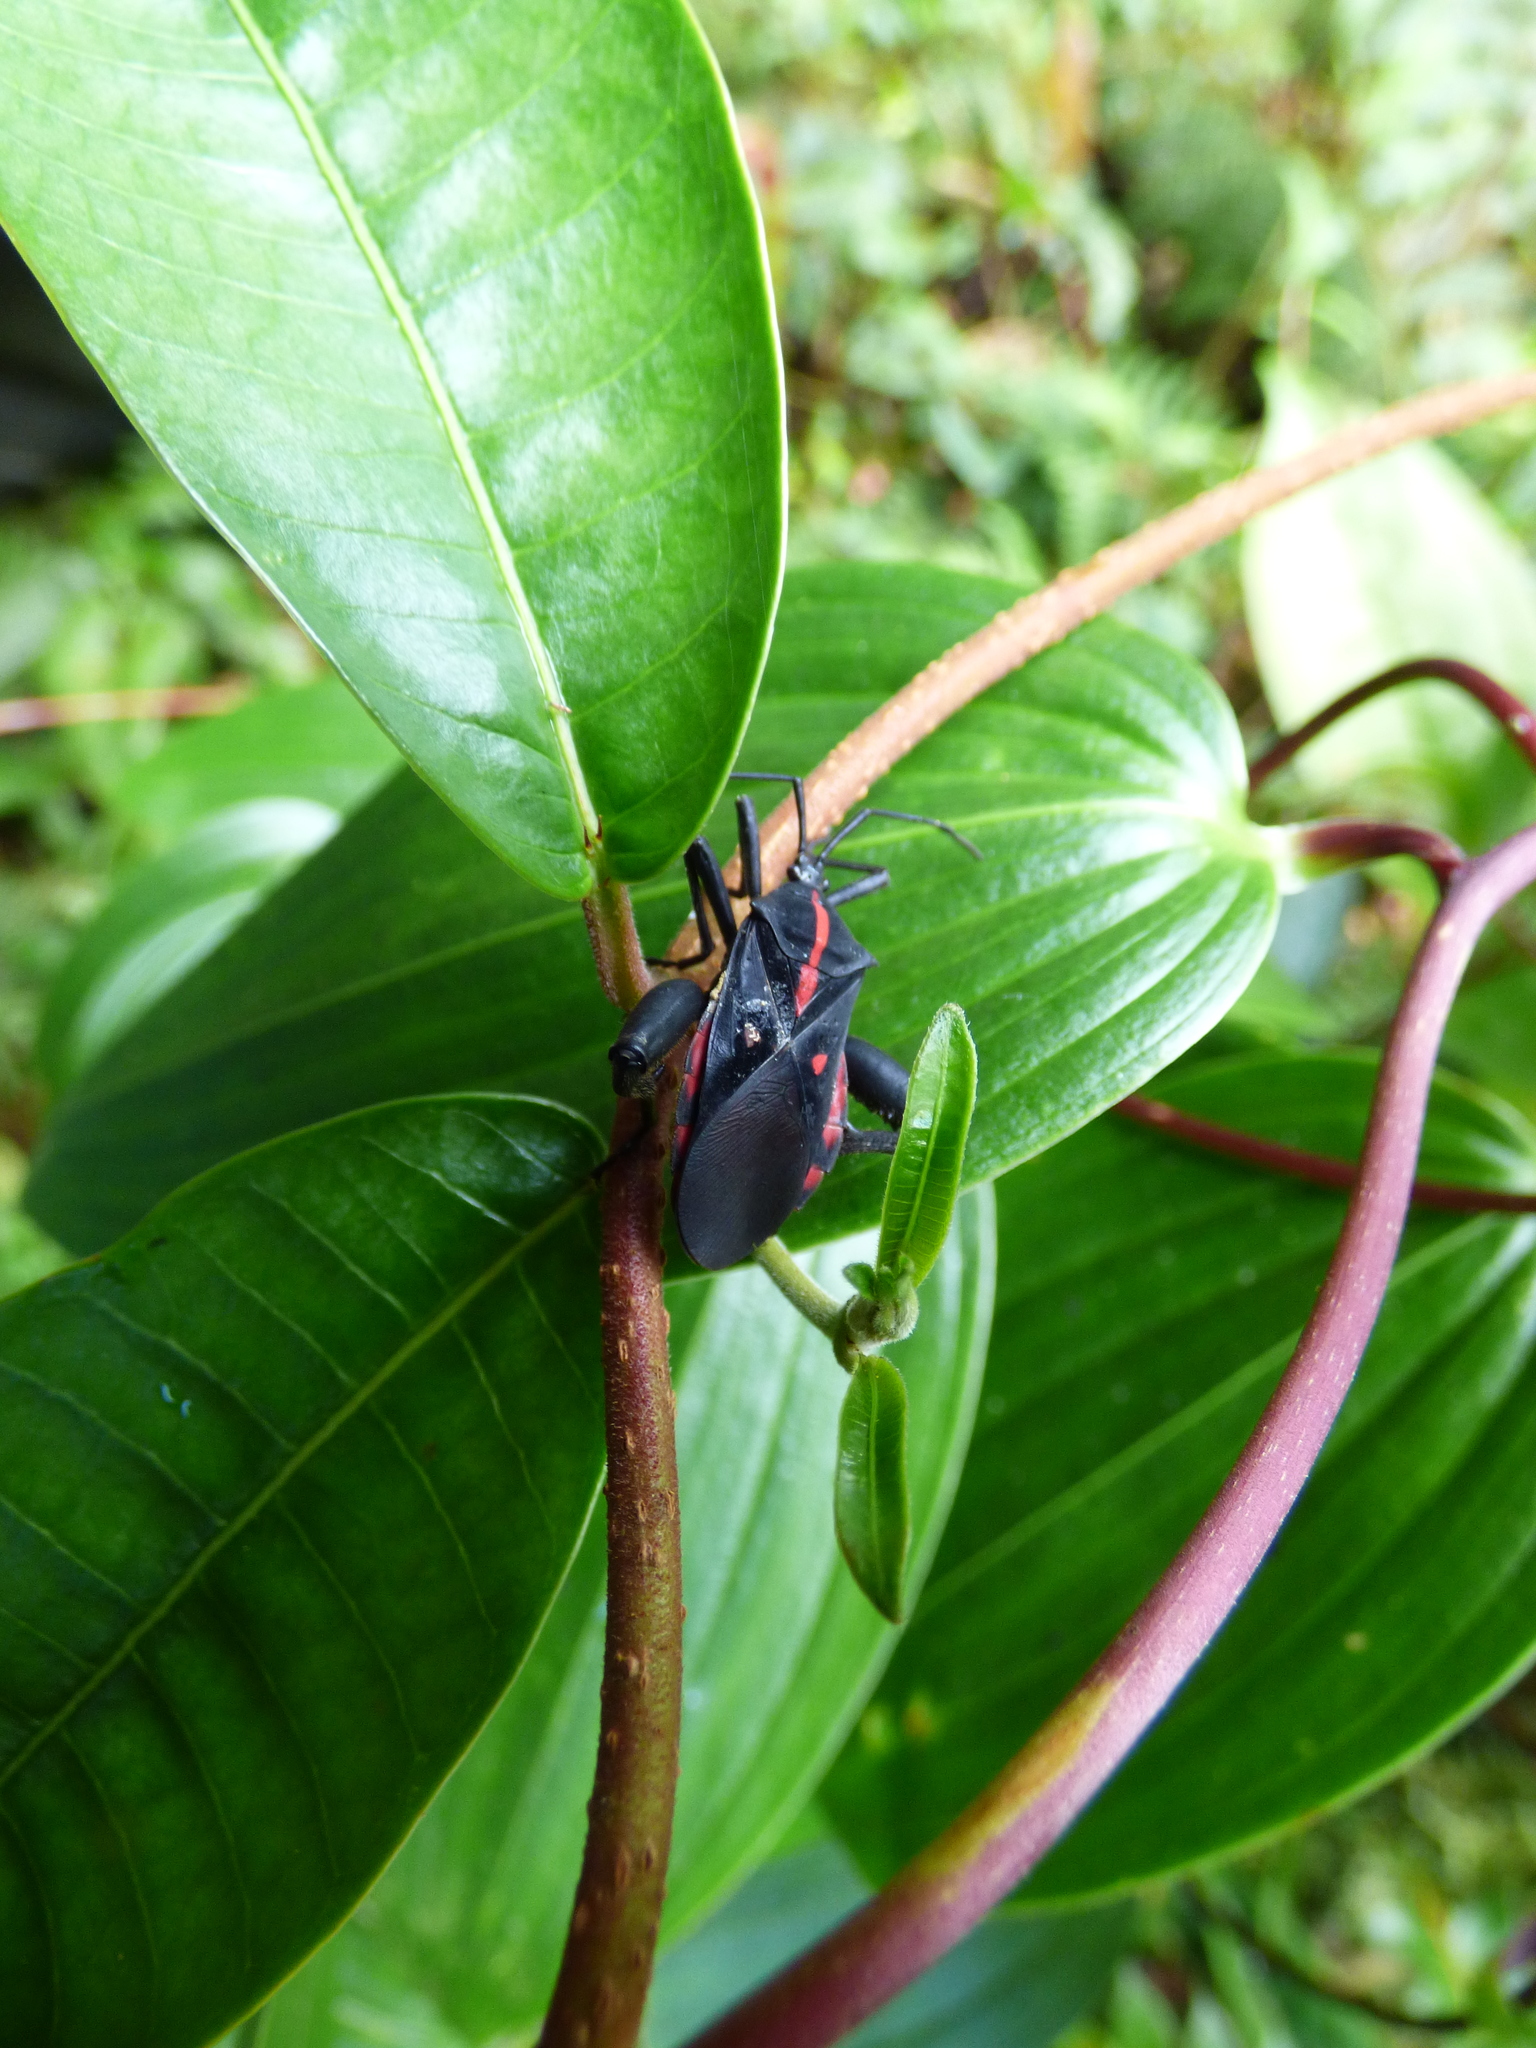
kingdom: Animalia
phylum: Arthropoda
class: Insecta
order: Hemiptera
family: Coreidae
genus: Curtius
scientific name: Curtius marginalis
